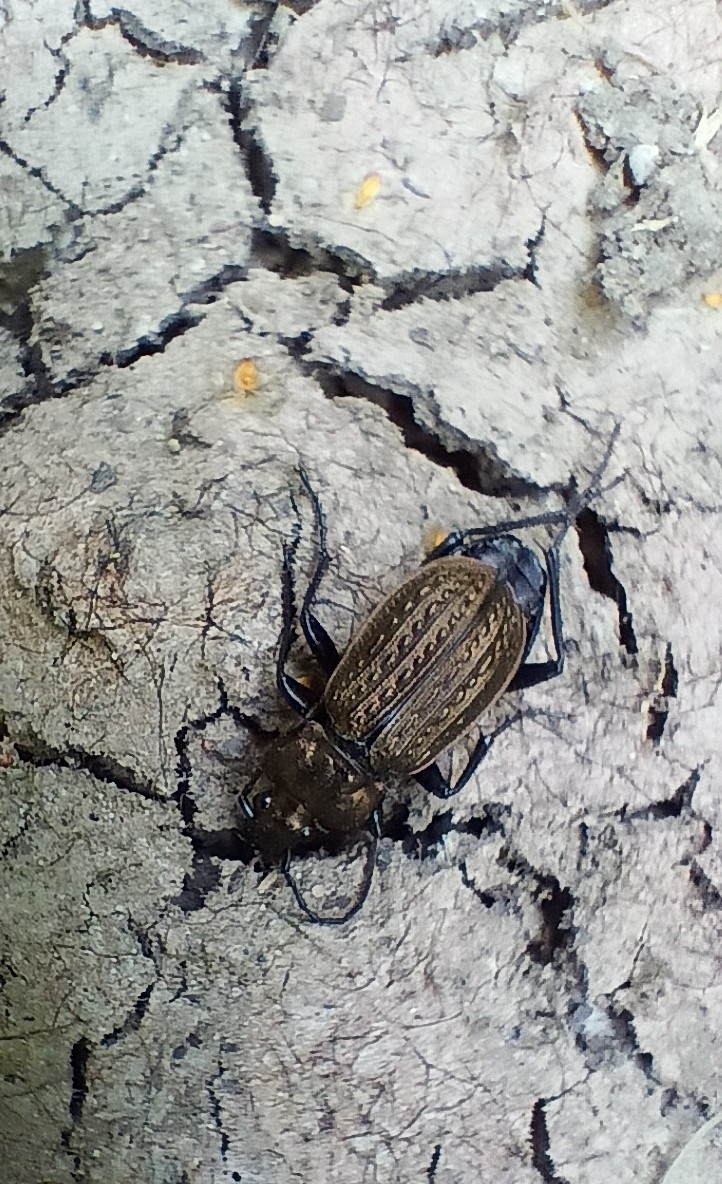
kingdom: Animalia
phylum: Arthropoda
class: Insecta
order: Coleoptera
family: Carabidae
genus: Carabus
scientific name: Carabus granulatus
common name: Granulate ground beetle
